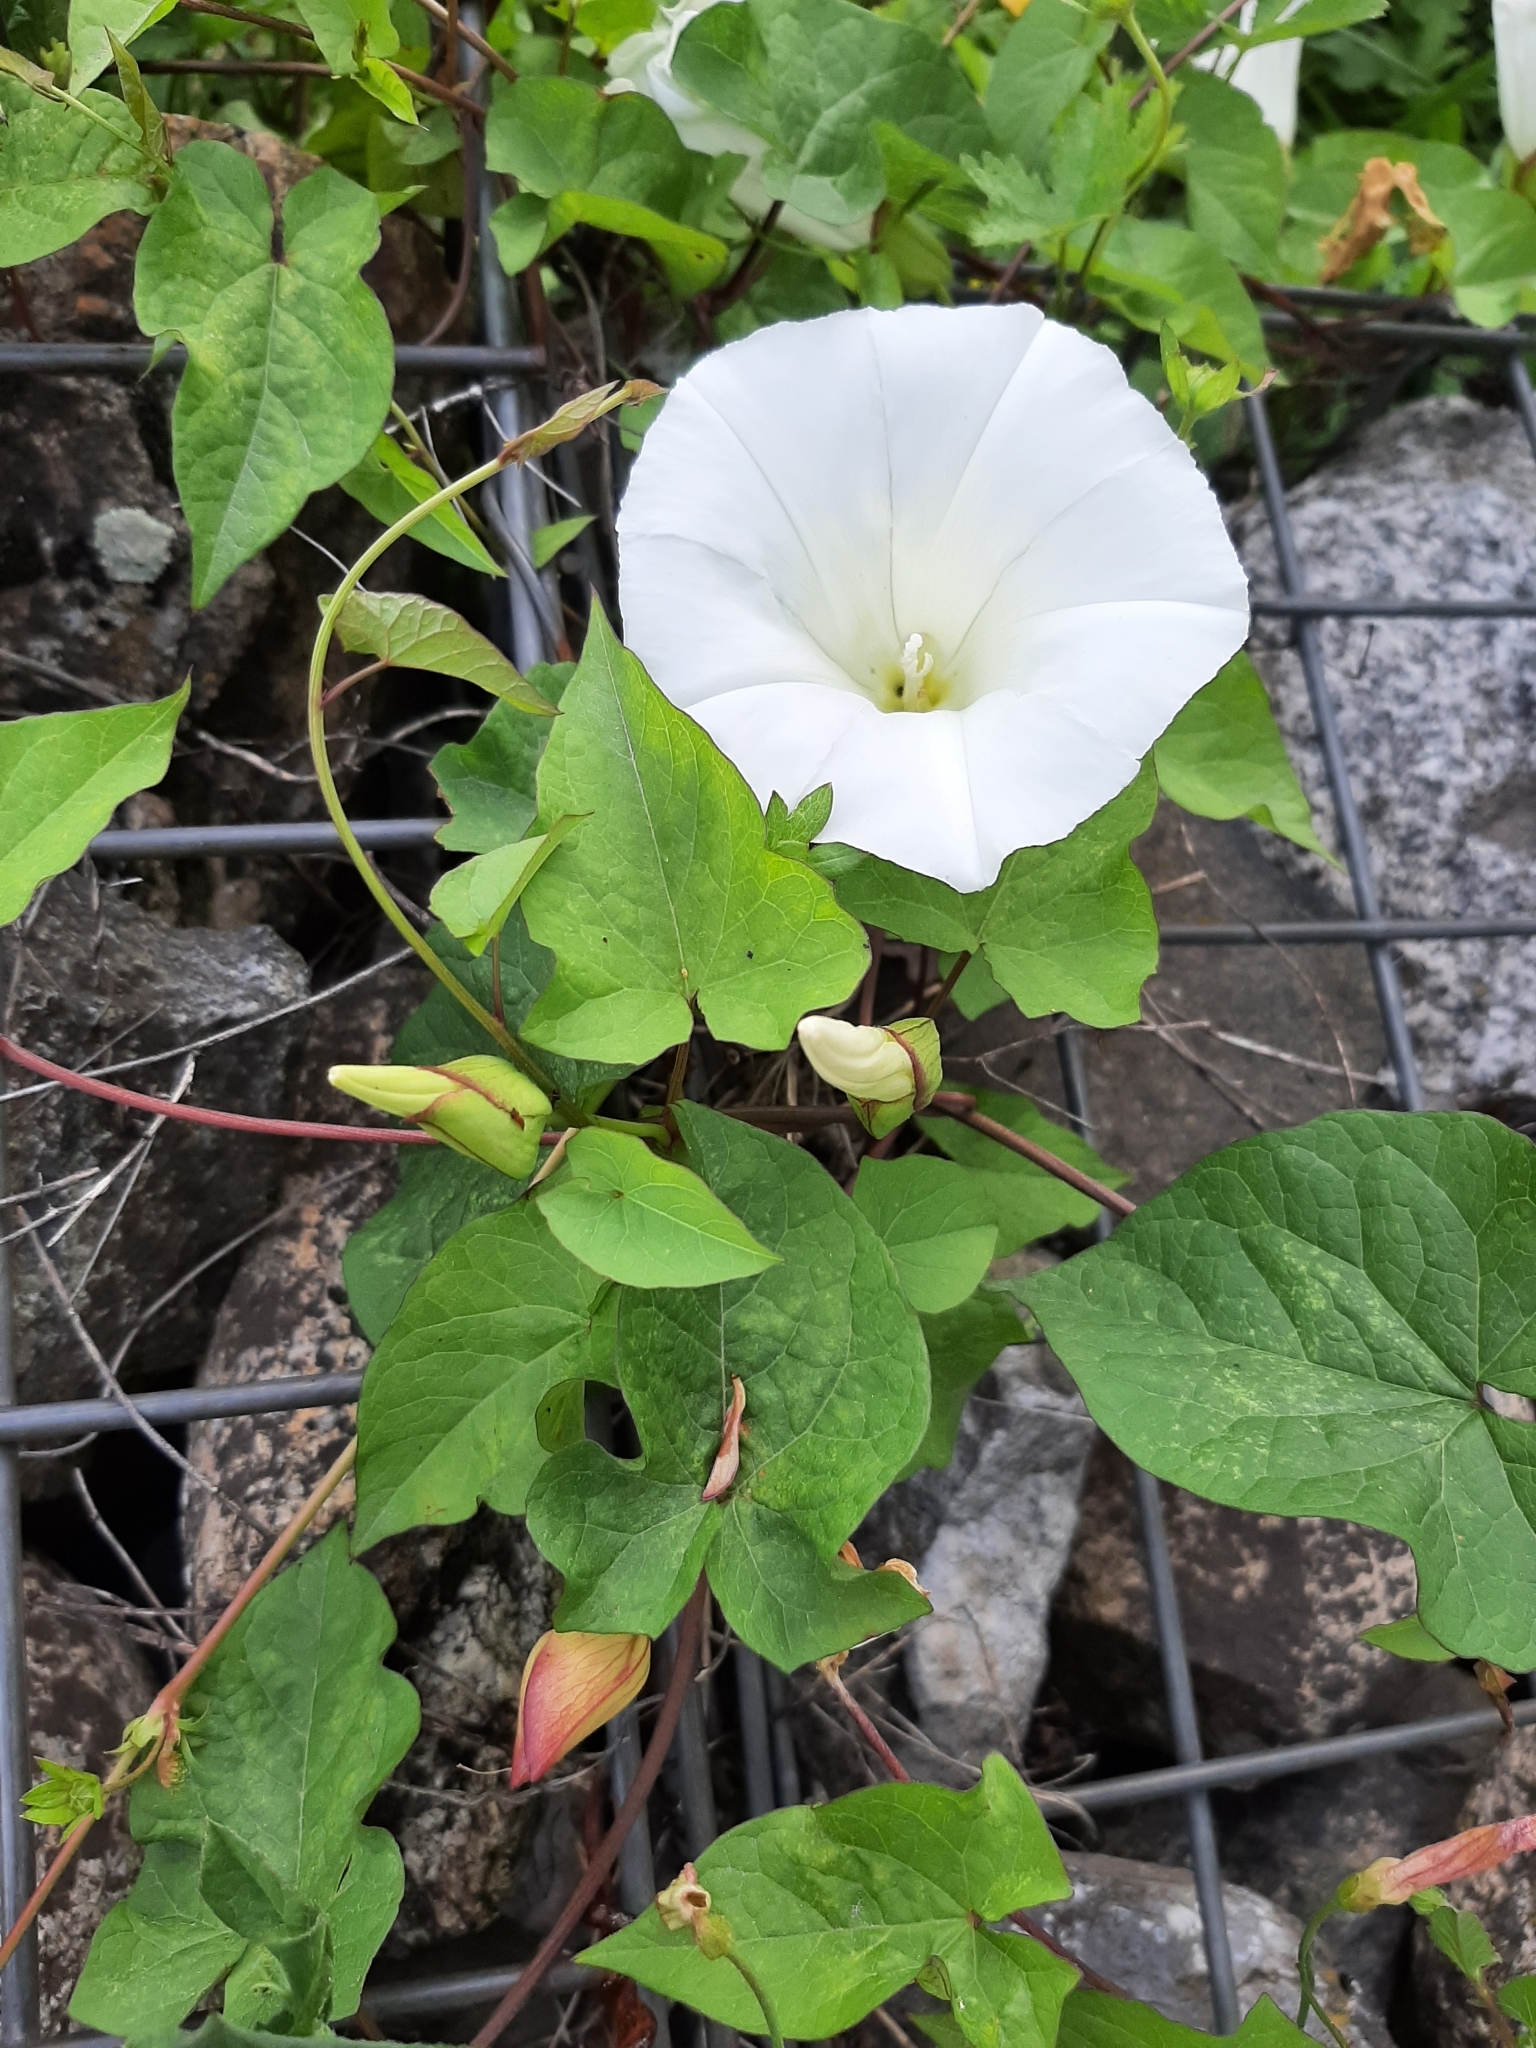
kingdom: Plantae
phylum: Tracheophyta
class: Magnoliopsida
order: Solanales
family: Convolvulaceae
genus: Calystegia
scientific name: Calystegia silvatica
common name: Large bindweed
